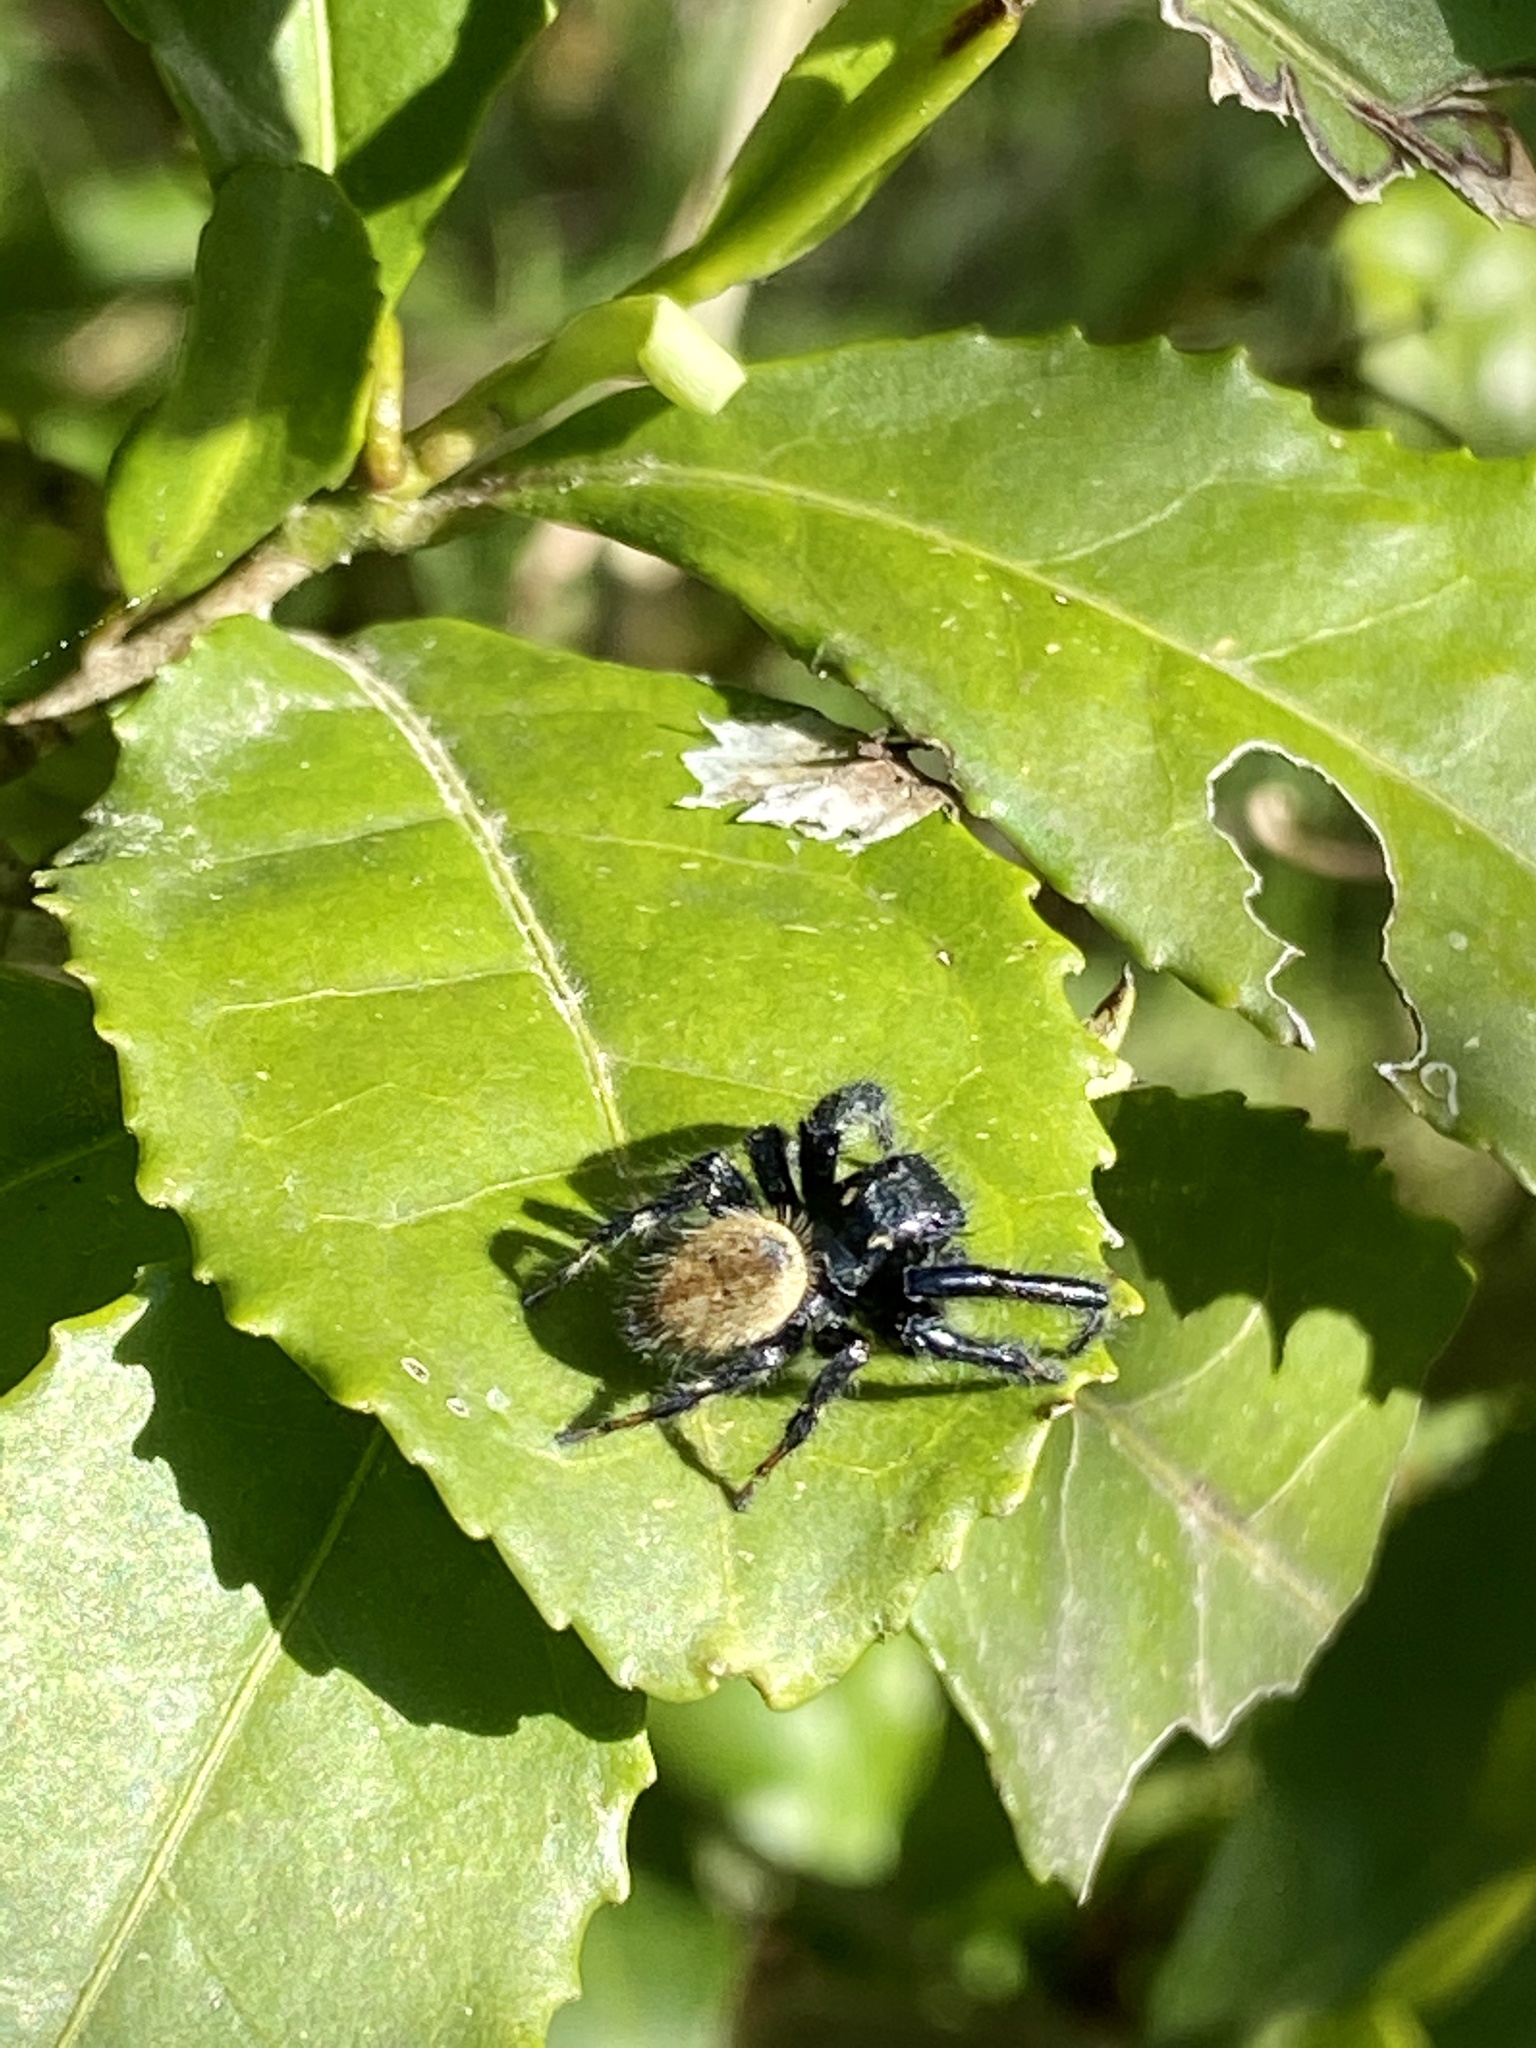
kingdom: Animalia
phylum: Arthropoda
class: Arachnida
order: Araneae
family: Salticidae
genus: Carrhotus
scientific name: Carrhotus xanthogramma
